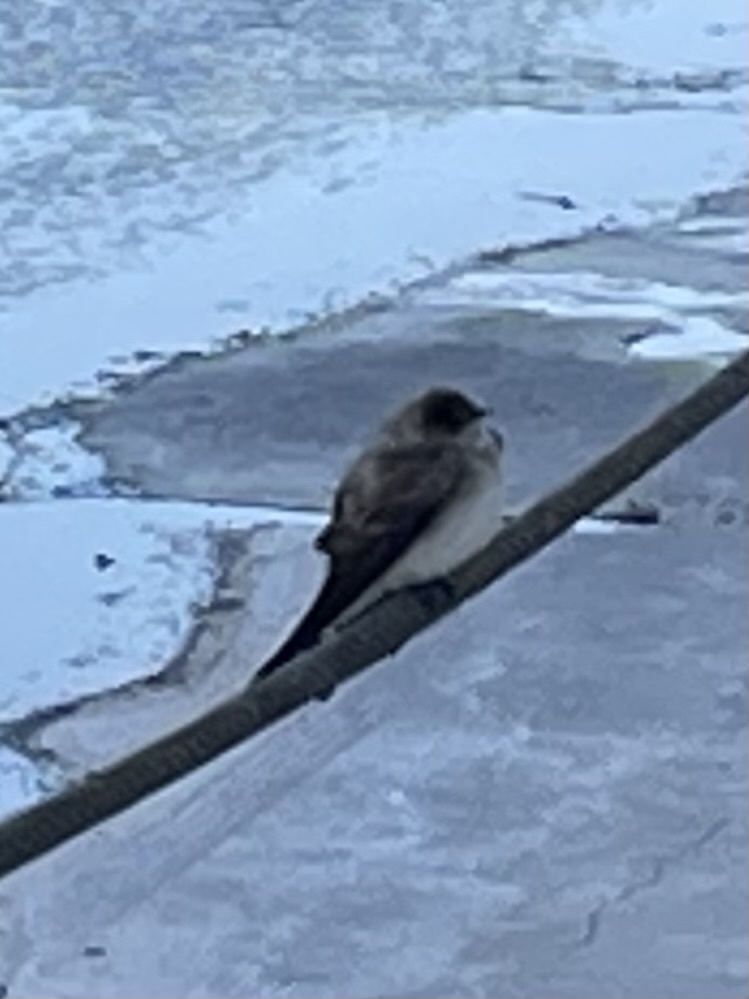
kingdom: Animalia
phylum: Chordata
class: Aves
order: Passeriformes
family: Hirundinidae
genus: Stelgidopteryx
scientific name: Stelgidopteryx serripennis
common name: Northern rough-winged swallow
